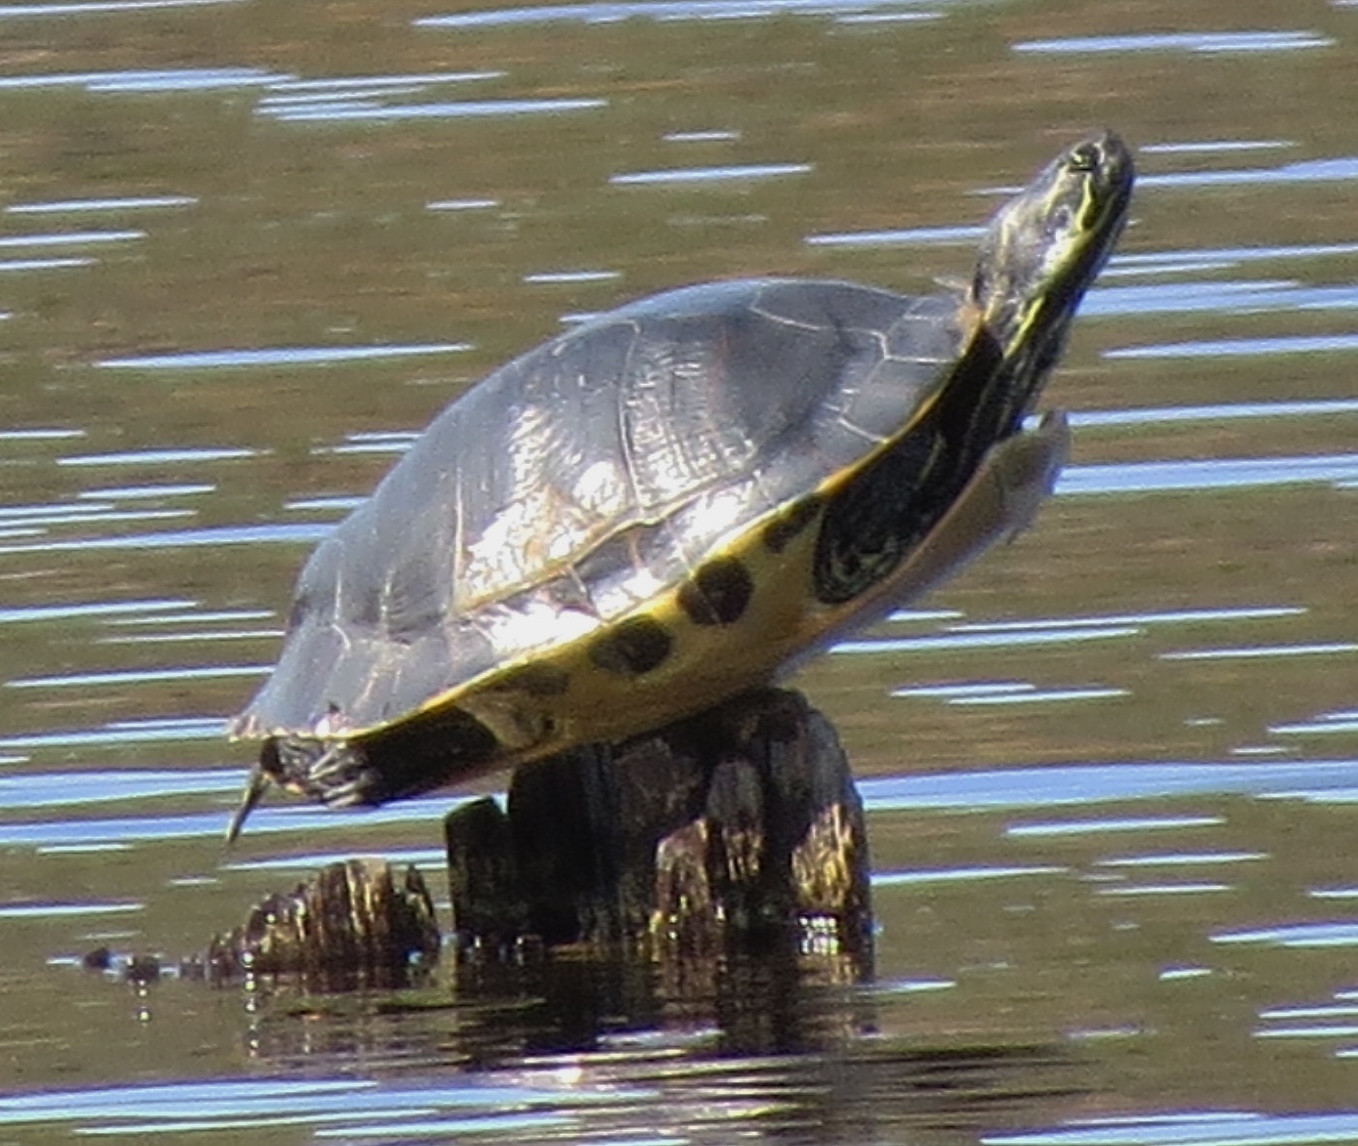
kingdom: Animalia
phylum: Chordata
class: Testudines
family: Emydidae
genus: Pseudemys
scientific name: Pseudemys concinna
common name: Eastern river cooter
